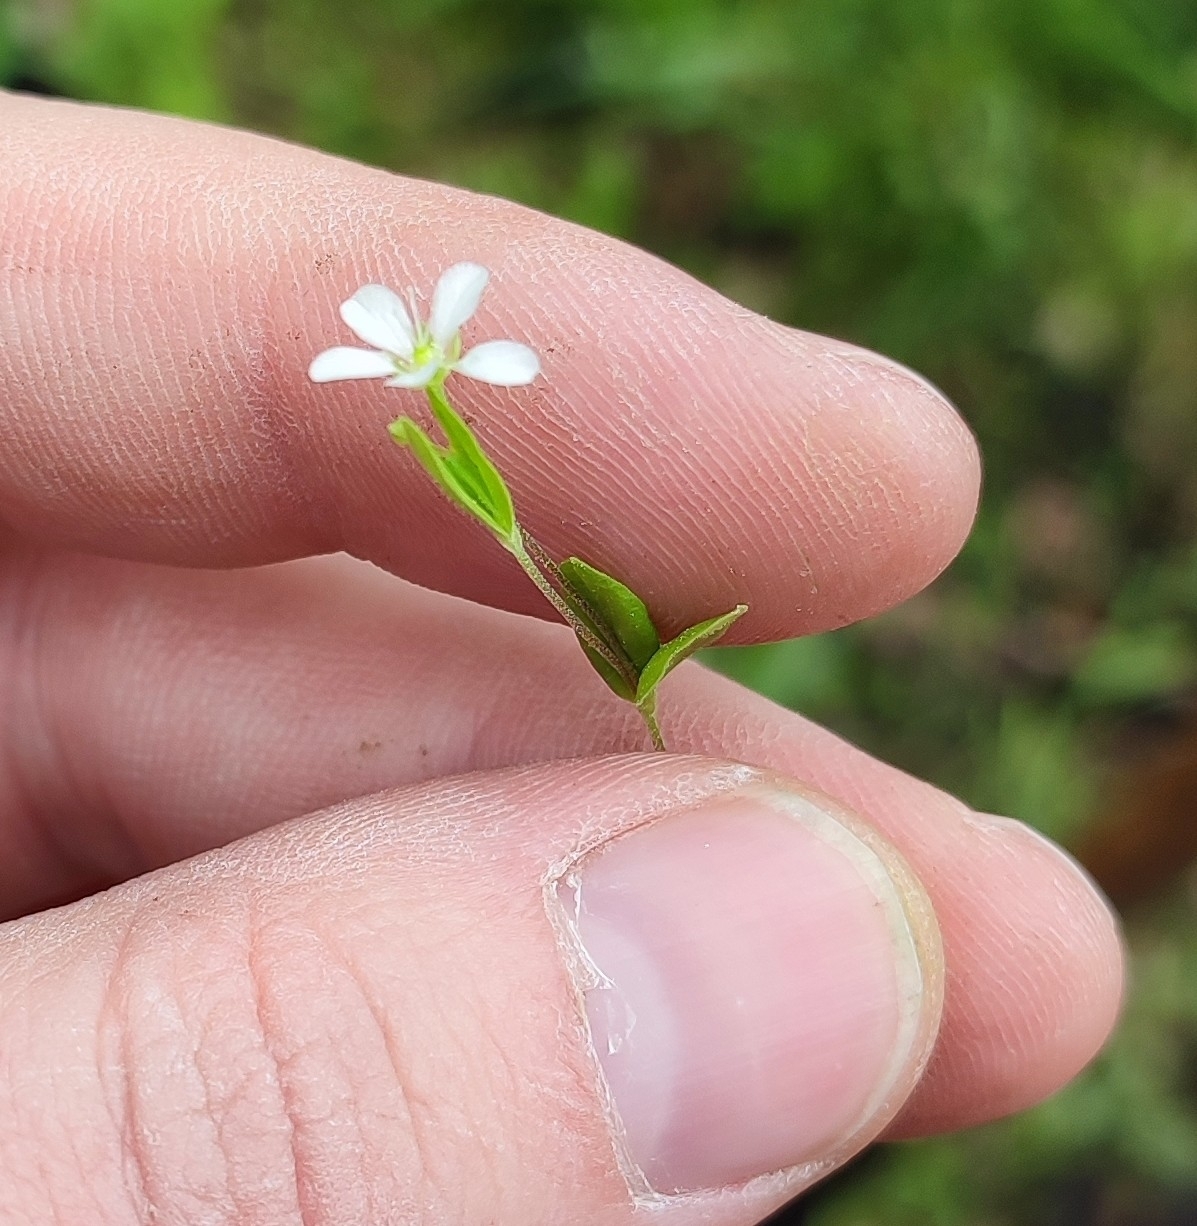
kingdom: Plantae
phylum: Tracheophyta
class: Magnoliopsida
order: Caryophyllales
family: Caryophyllaceae
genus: Moehringia
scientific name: Moehringia lateriflora
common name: Blunt-leaved sandwort
